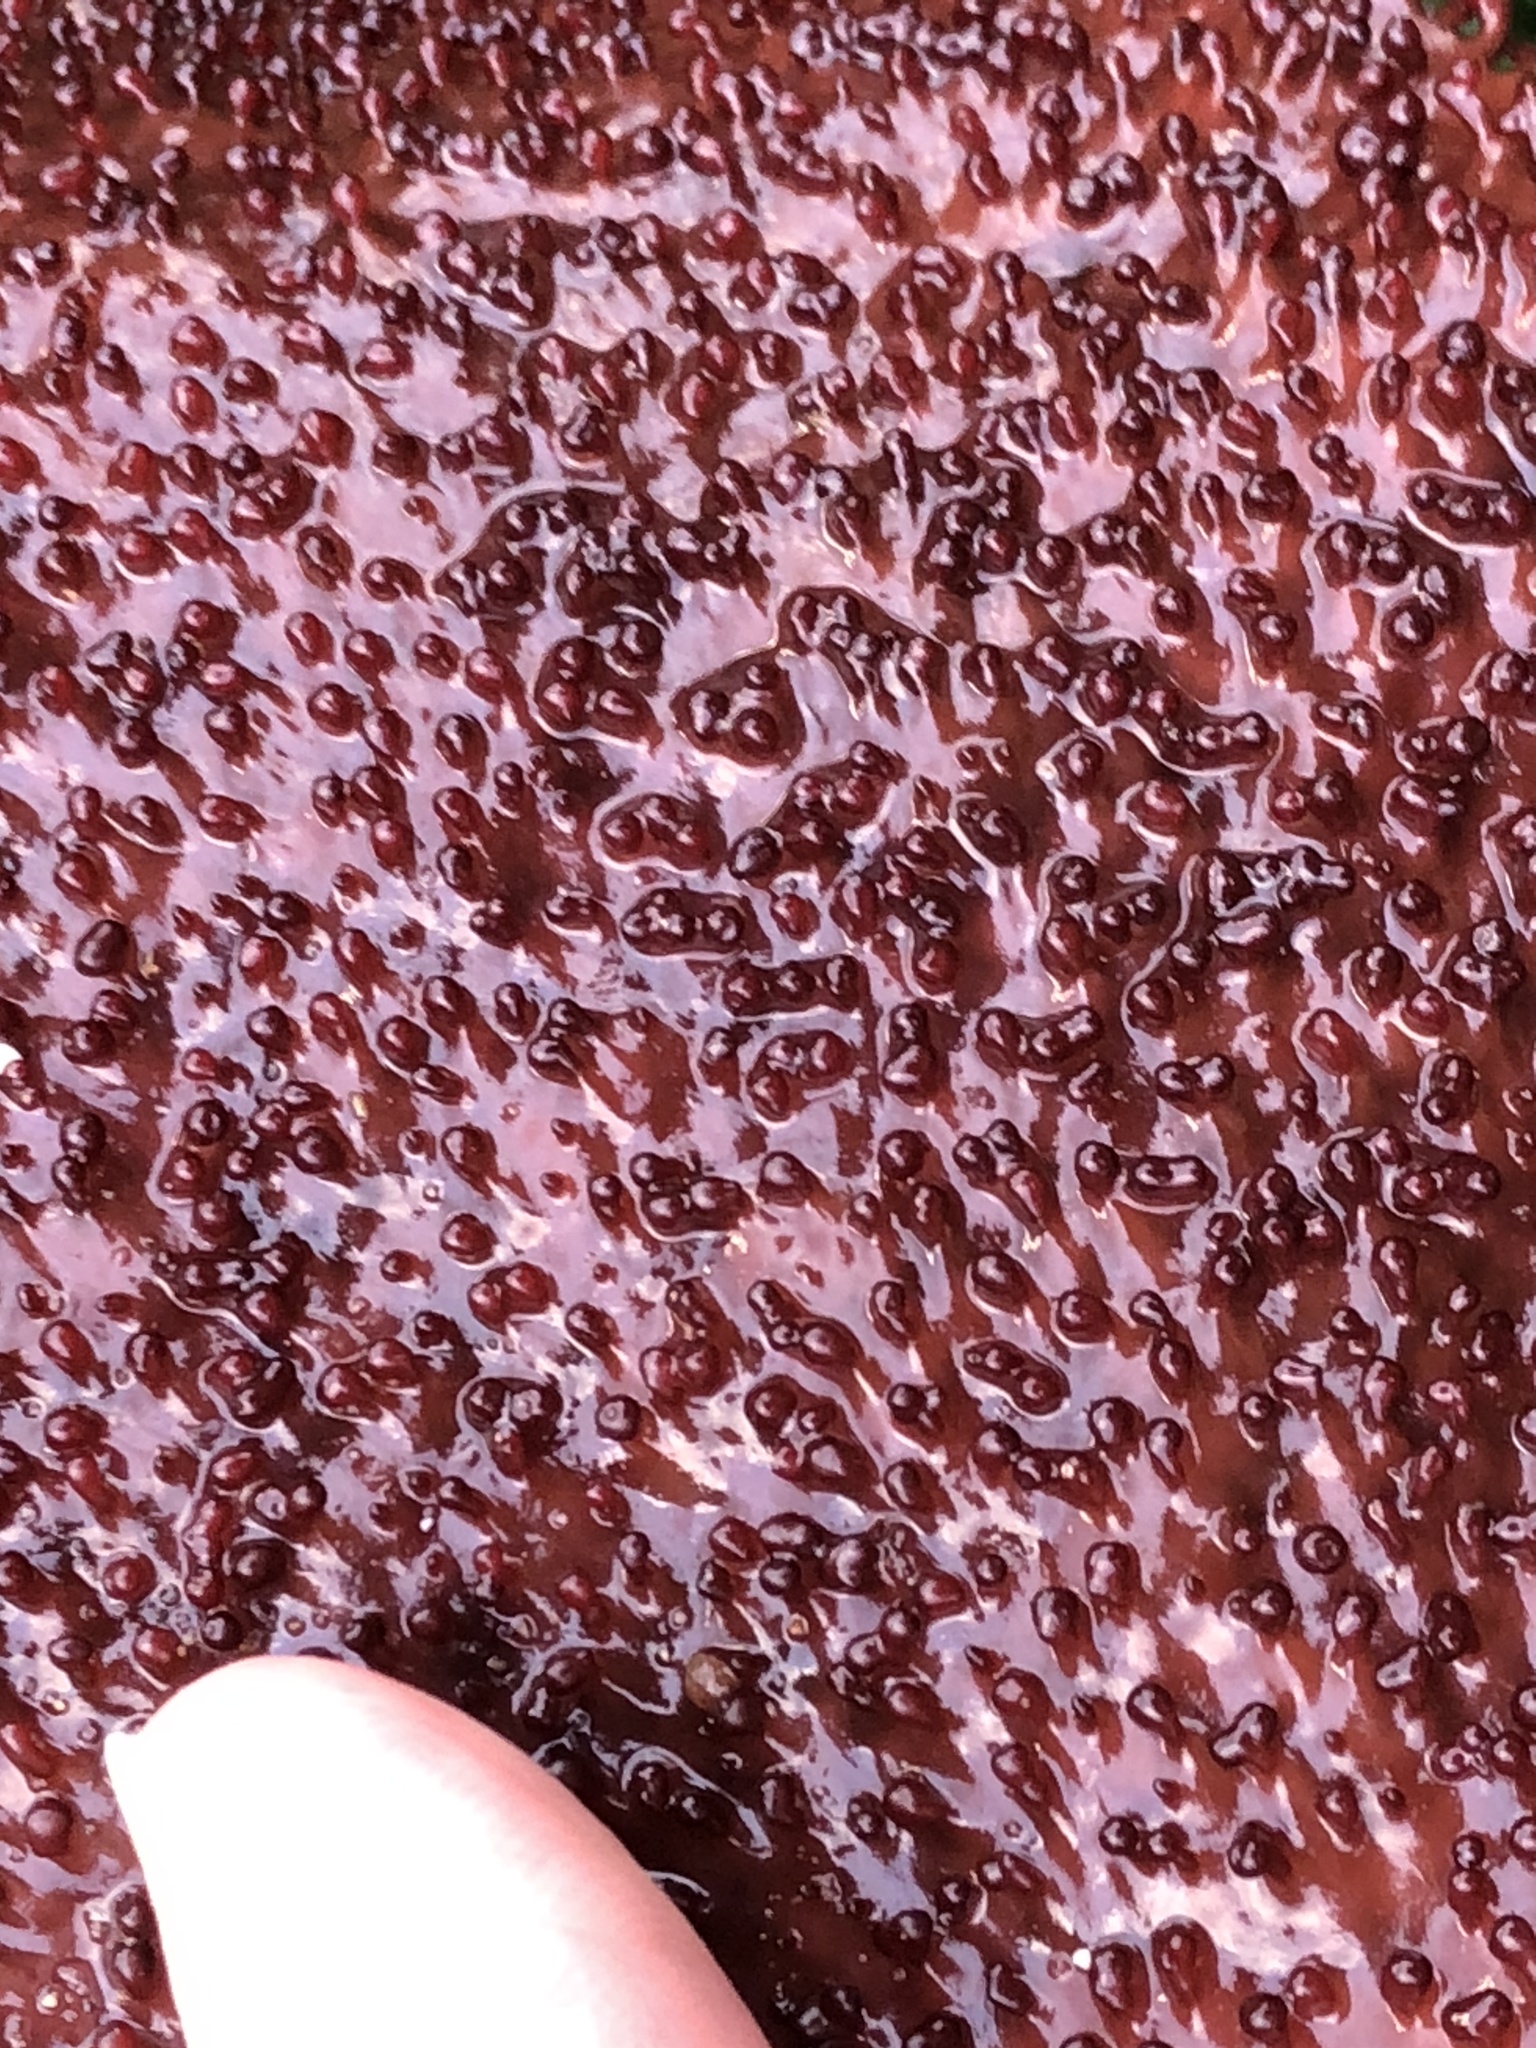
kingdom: Plantae
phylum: Rhodophyta
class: Florideophyceae
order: Gigartinales
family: Gigartinaceae
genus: Chondracanthus
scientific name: Chondracanthus exasperatus
